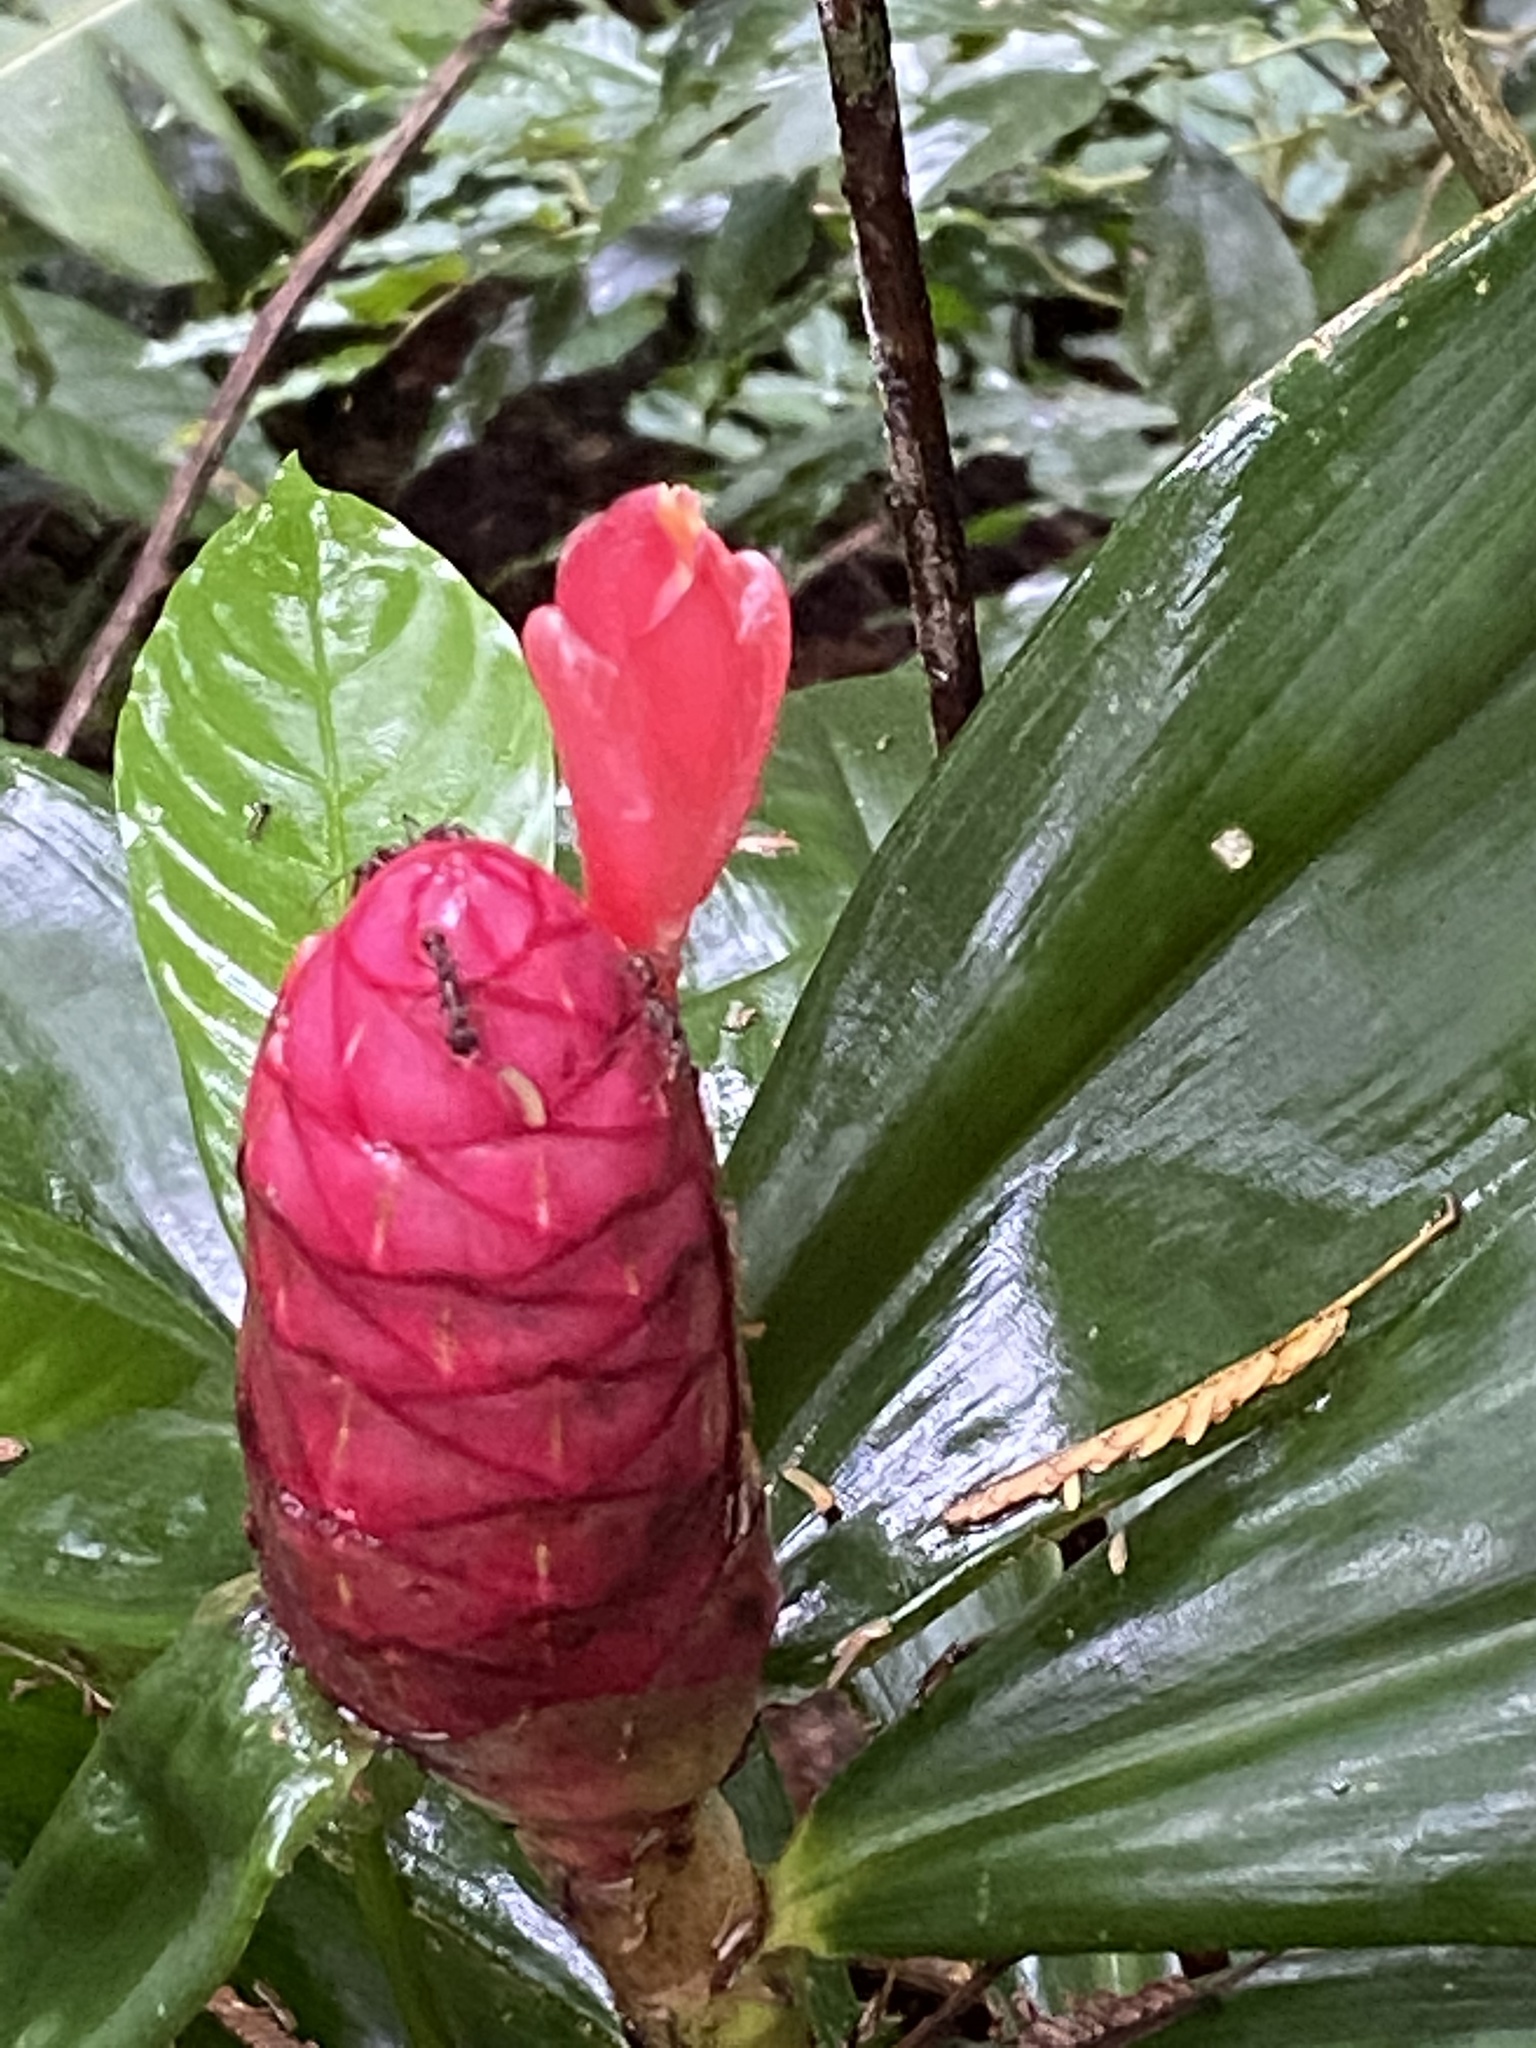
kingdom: Plantae
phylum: Tracheophyta
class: Liliopsida
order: Zingiberales
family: Costaceae
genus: Costus
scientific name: Costus spiralis
